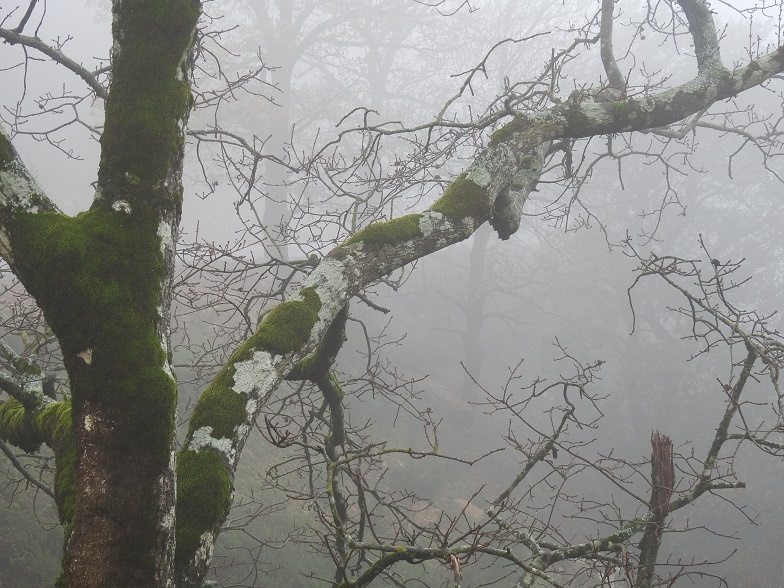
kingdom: Plantae
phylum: Tracheophyta
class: Magnoliopsida
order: Fagales
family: Fagaceae
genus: Quercus
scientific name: Quercus afares
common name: African oak
